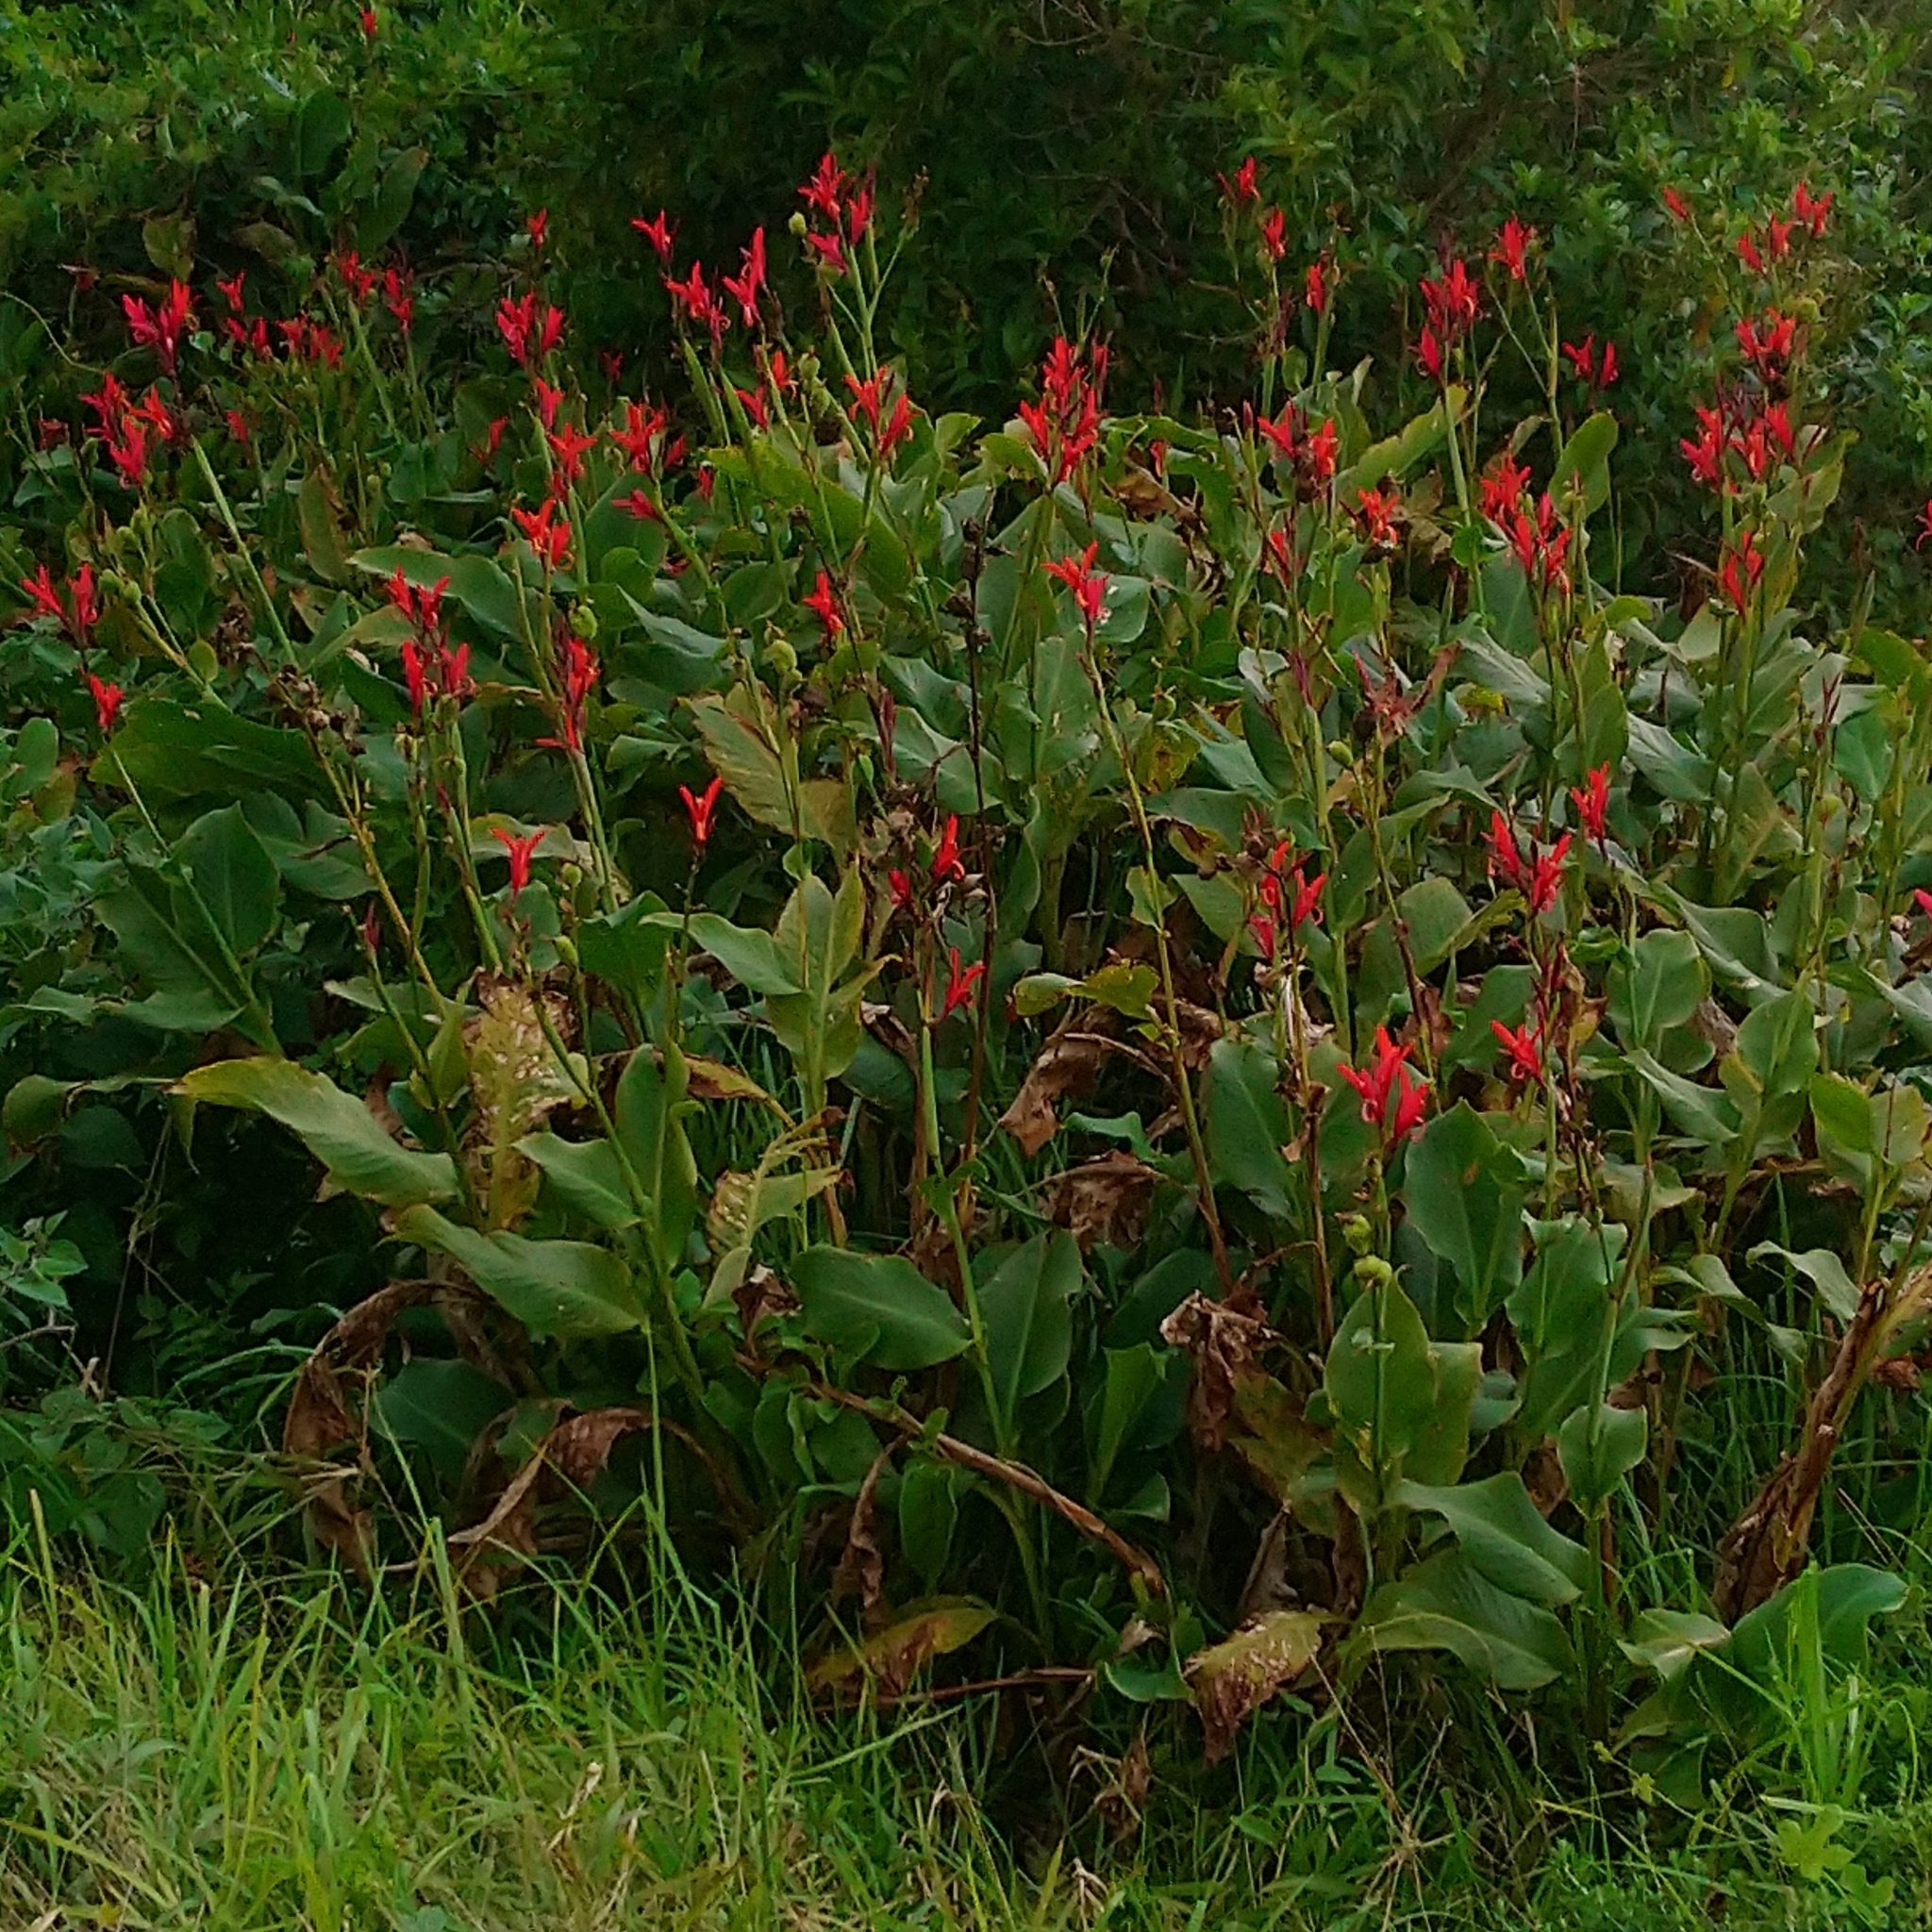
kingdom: Plantae
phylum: Tracheophyta
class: Liliopsida
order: Zingiberales
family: Cannaceae
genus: Canna
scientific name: Canna indica
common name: Indian shot
